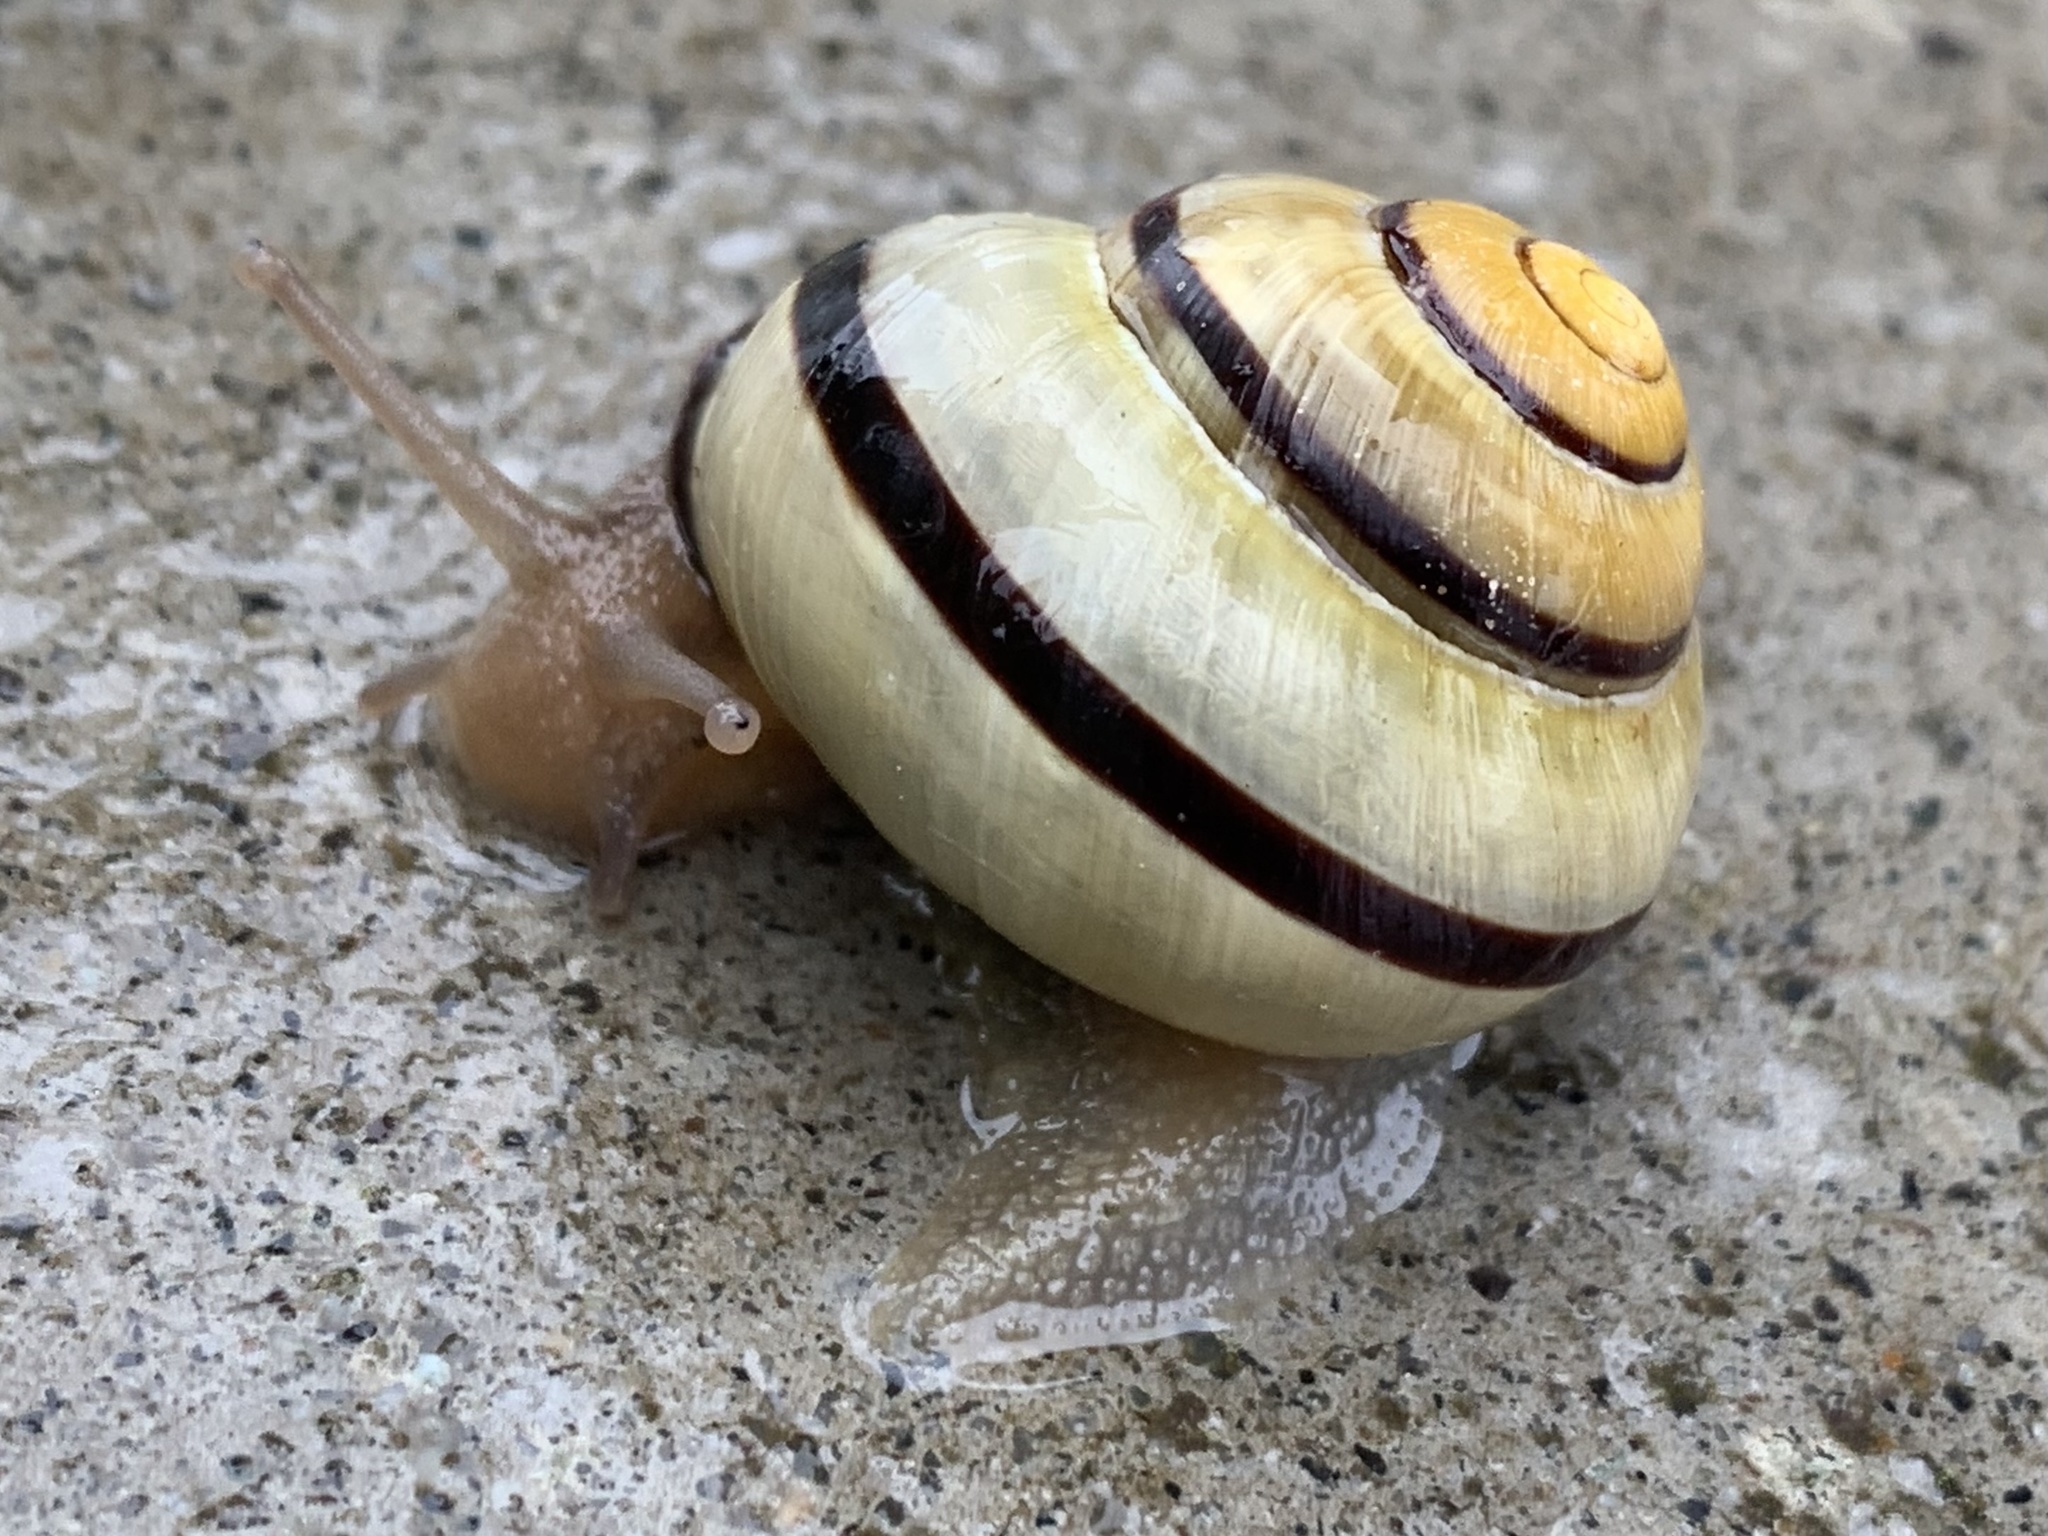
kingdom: Animalia
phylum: Mollusca
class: Gastropoda
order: Stylommatophora
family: Helicidae
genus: Cepaea
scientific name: Cepaea nemoralis
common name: Grovesnail
